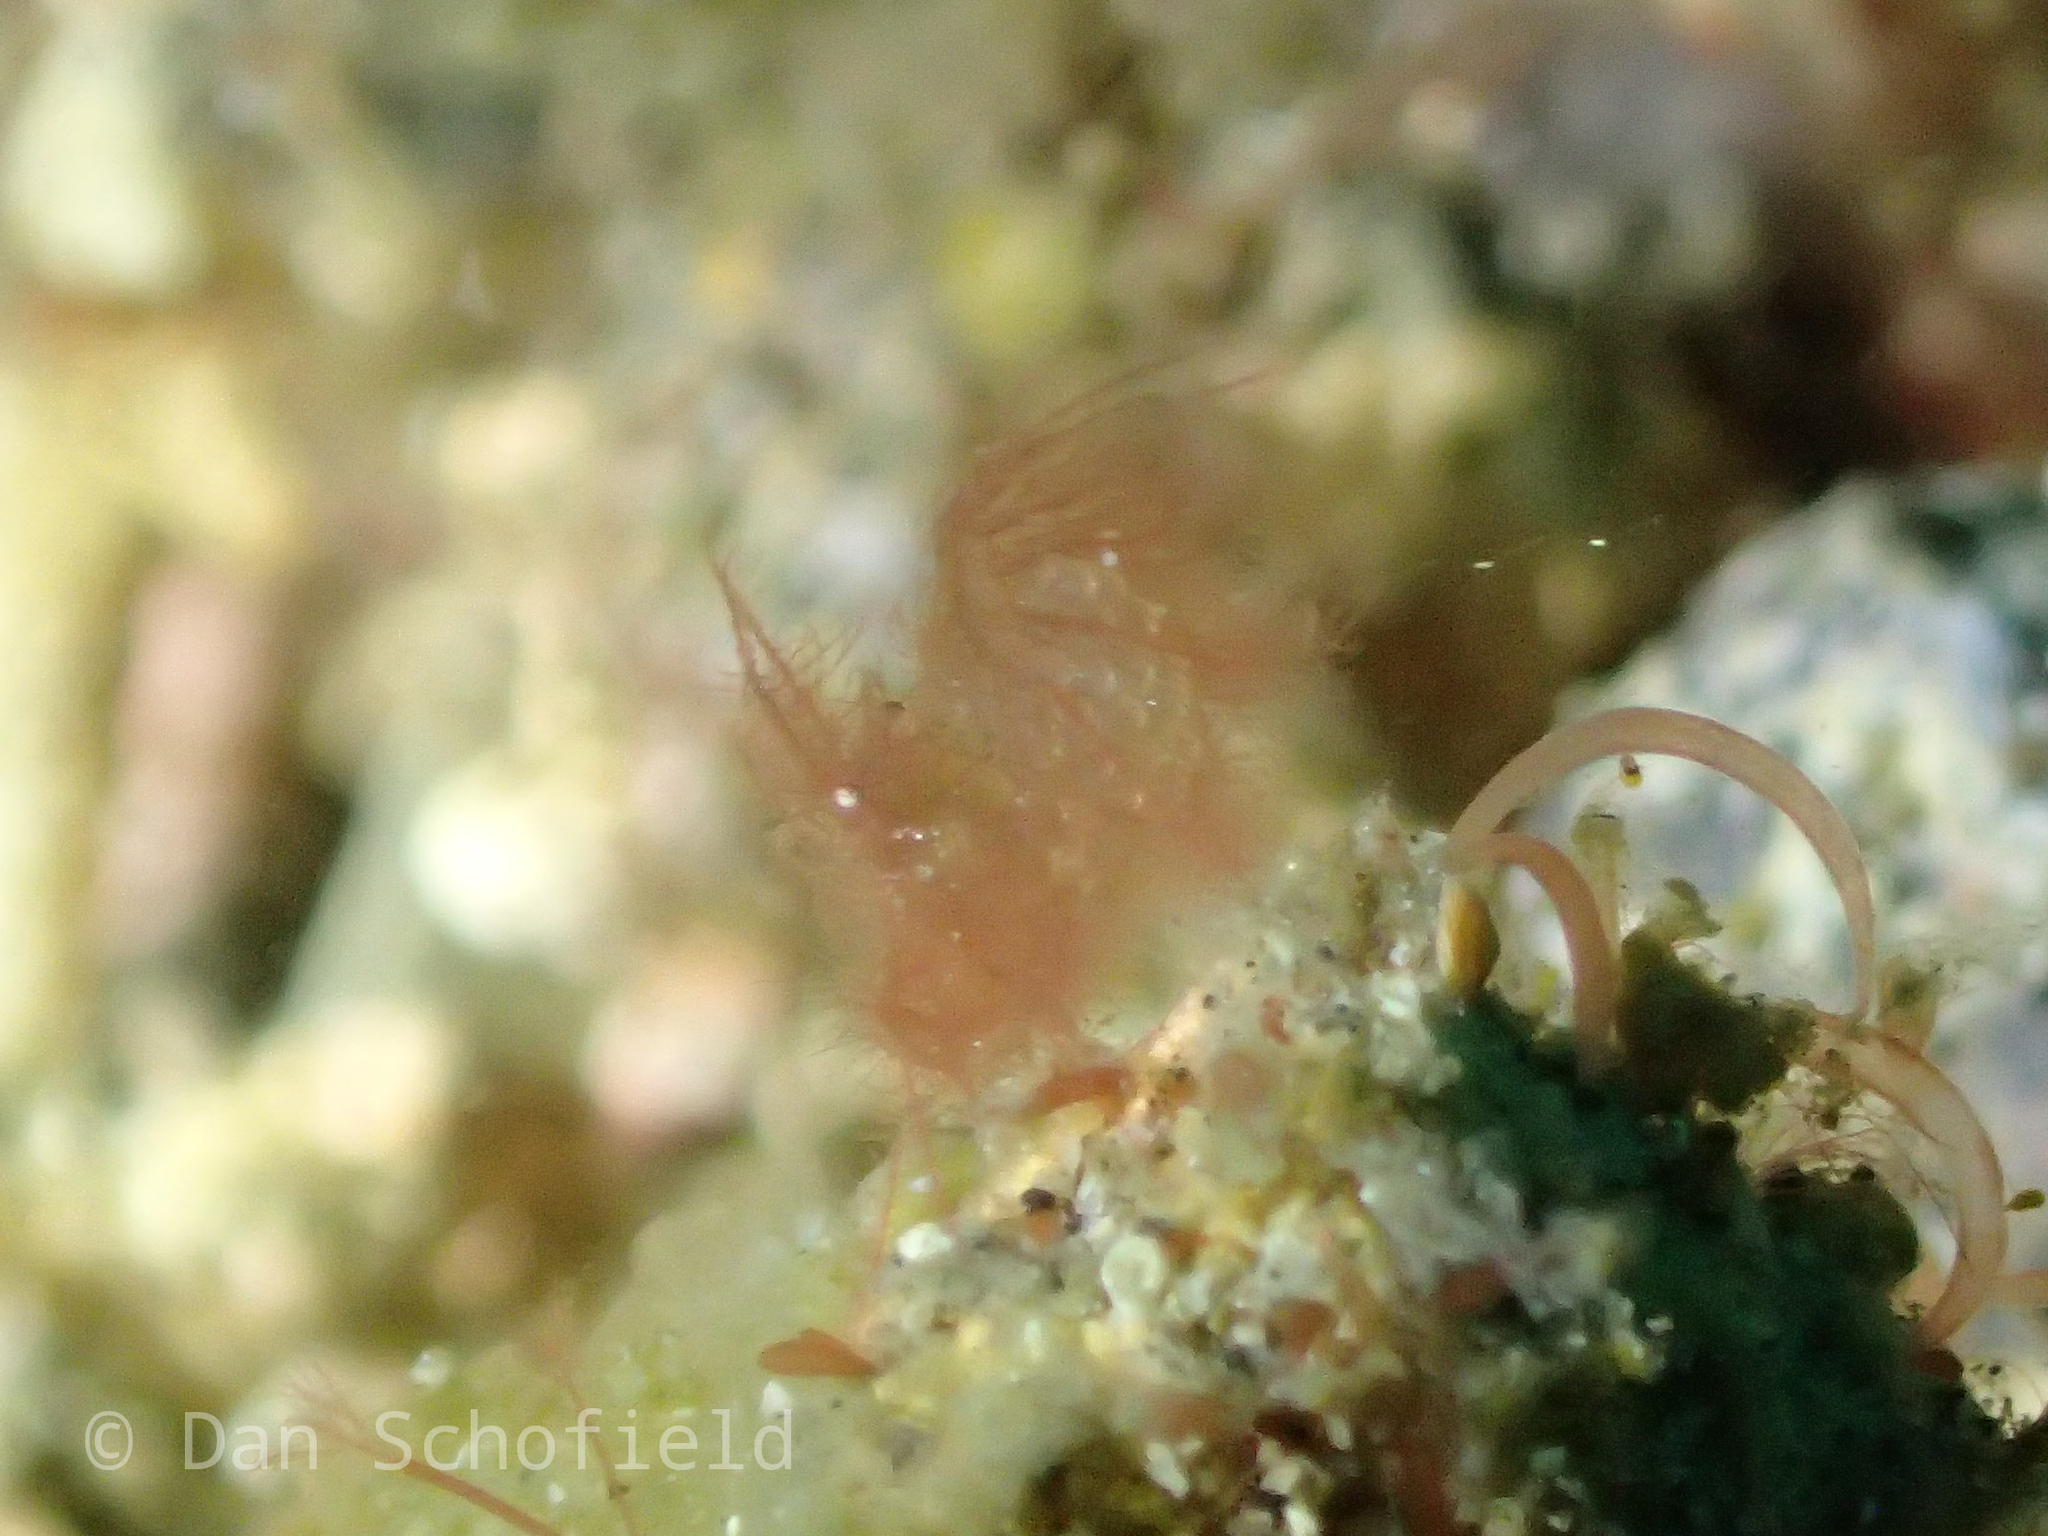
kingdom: Animalia
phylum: Arthropoda
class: Malacostraca
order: Decapoda
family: Hippolytidae
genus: Phycocaris
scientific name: Phycocaris simulans
